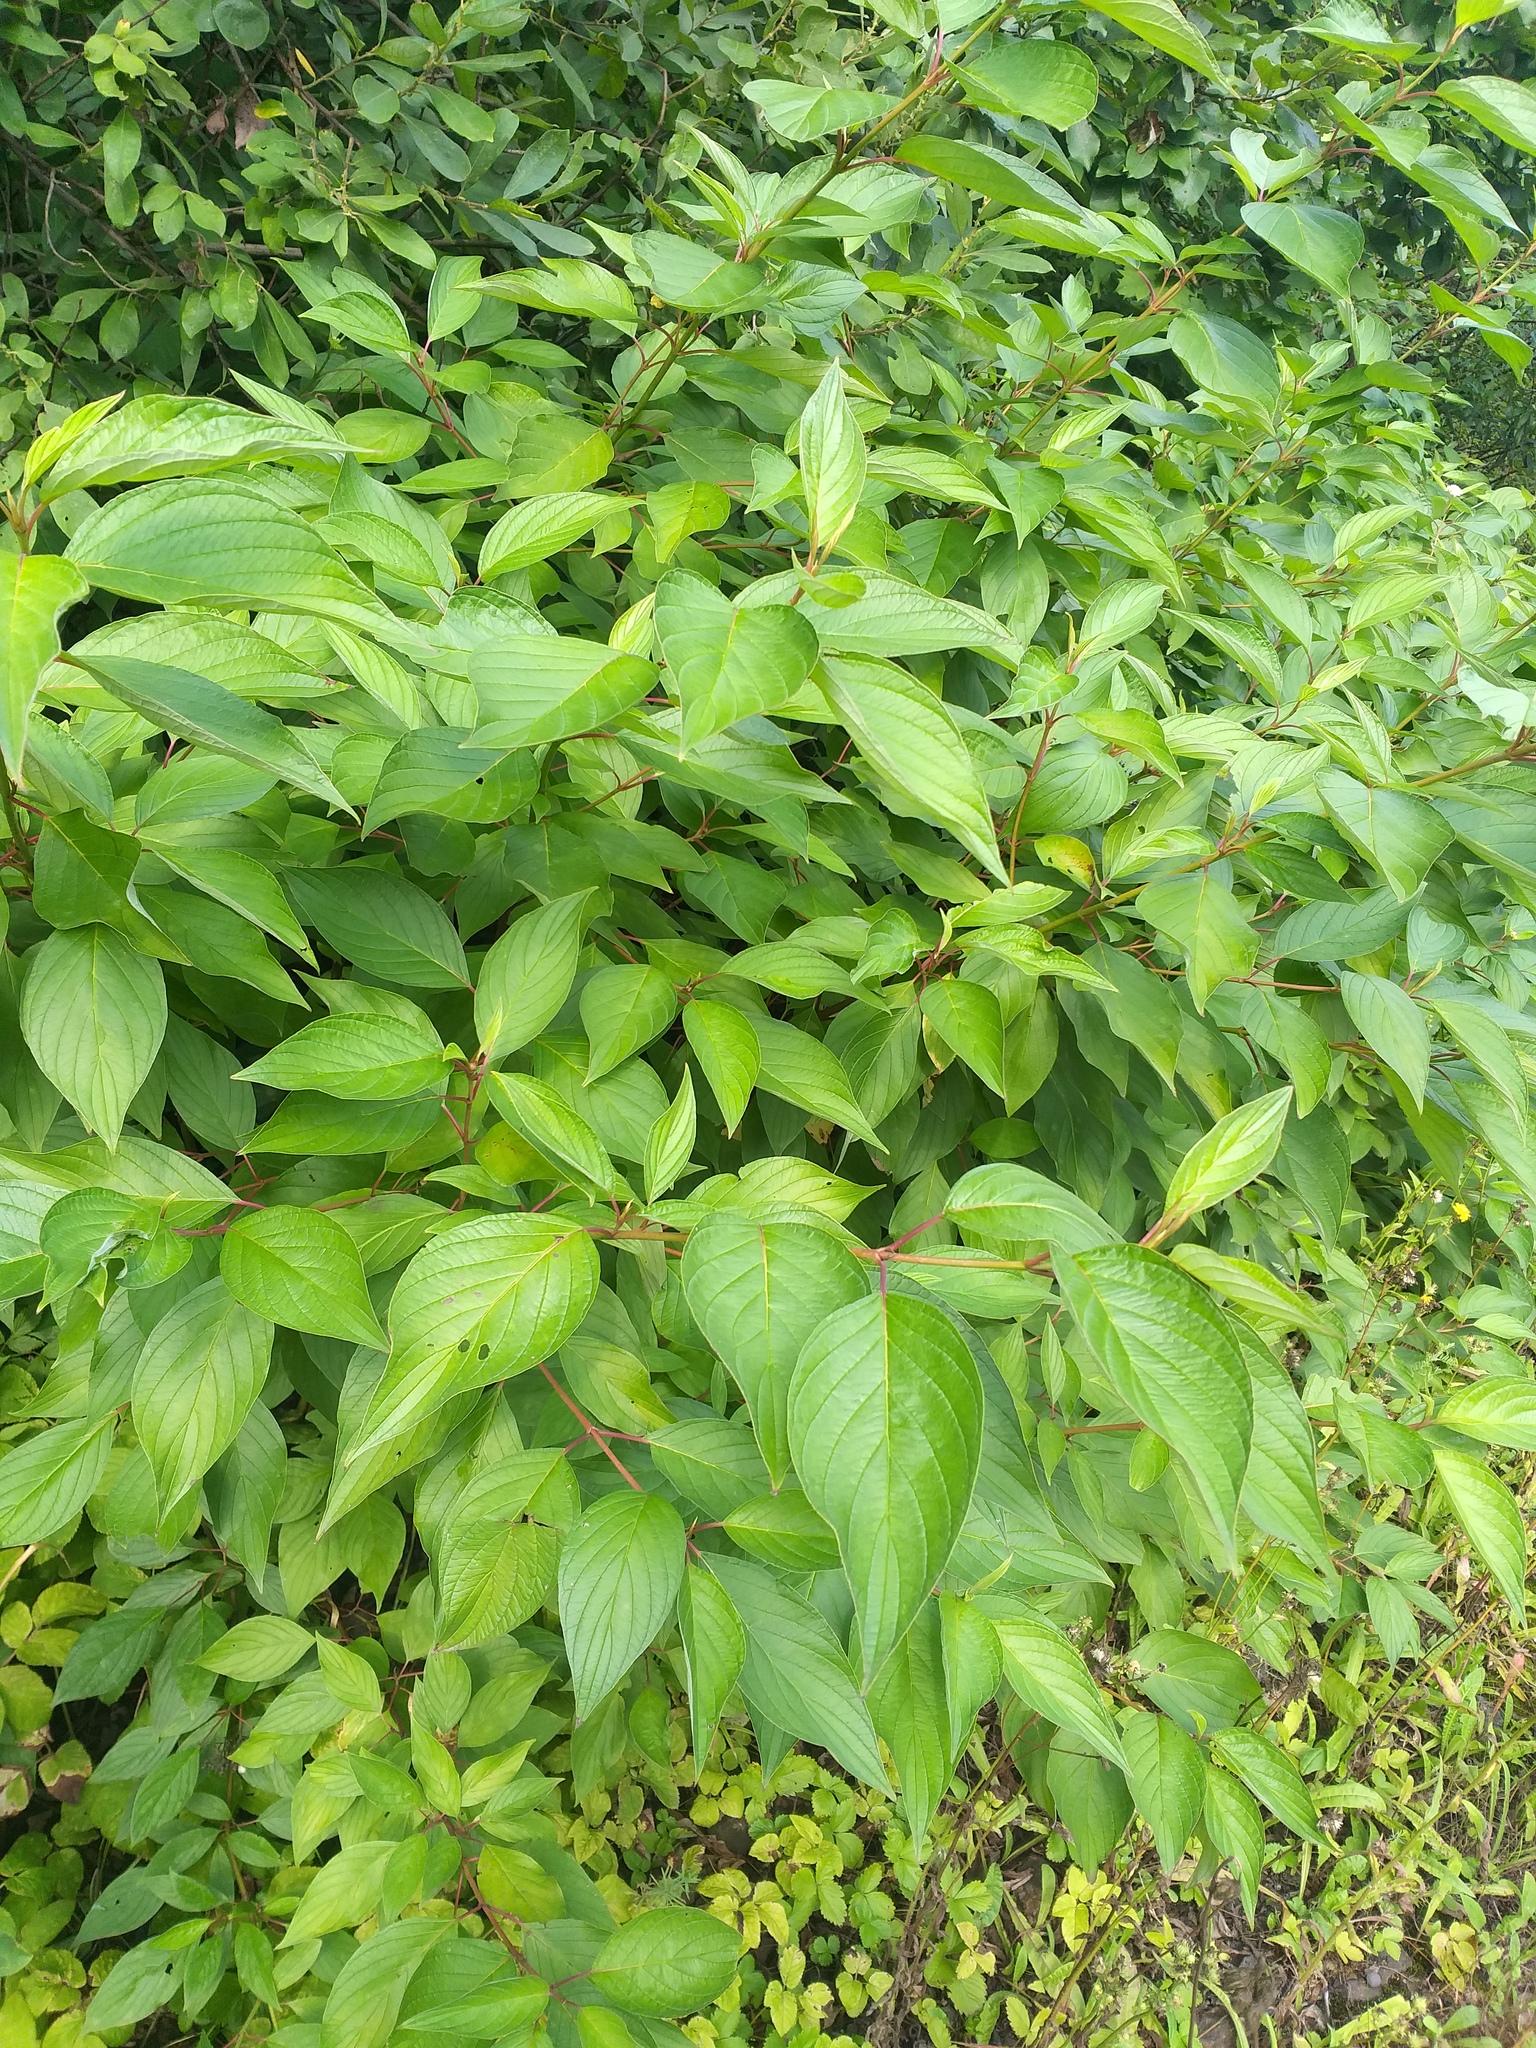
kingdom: Plantae
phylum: Tracheophyta
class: Magnoliopsida
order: Cornales
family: Cornaceae
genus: Cornus
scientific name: Cornus alba
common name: White dogwood
